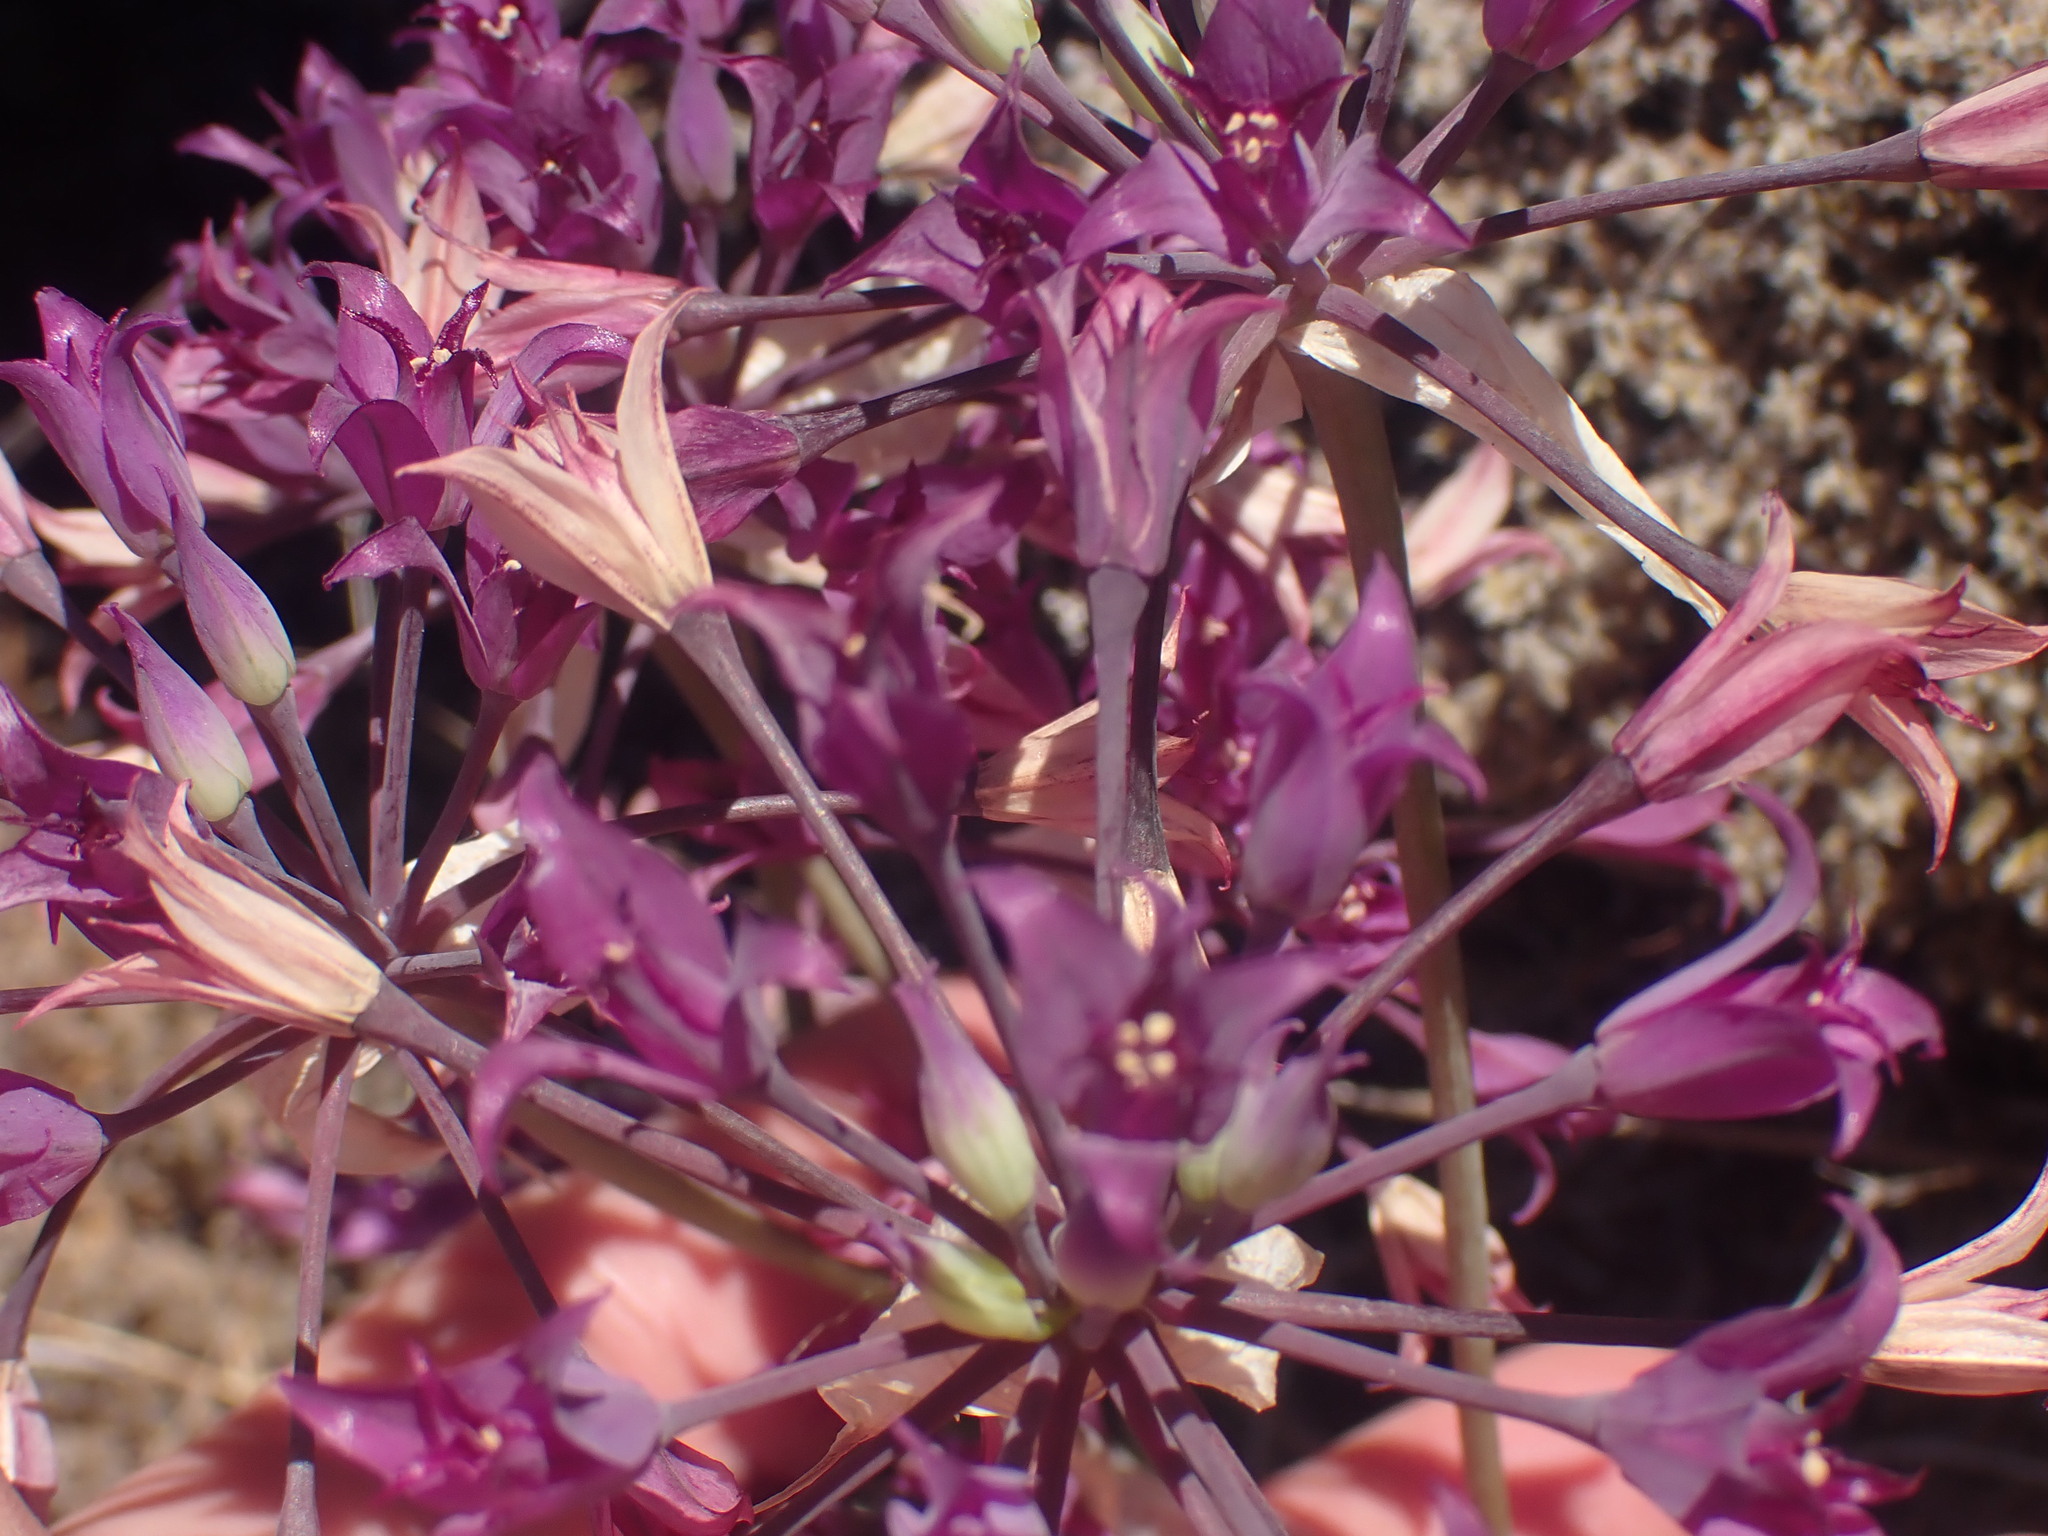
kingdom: Plantae
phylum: Tracheophyta
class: Liliopsida
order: Asparagales
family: Amaryllidaceae
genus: Allium
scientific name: Allium acuminatum
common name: Hooker's onion
